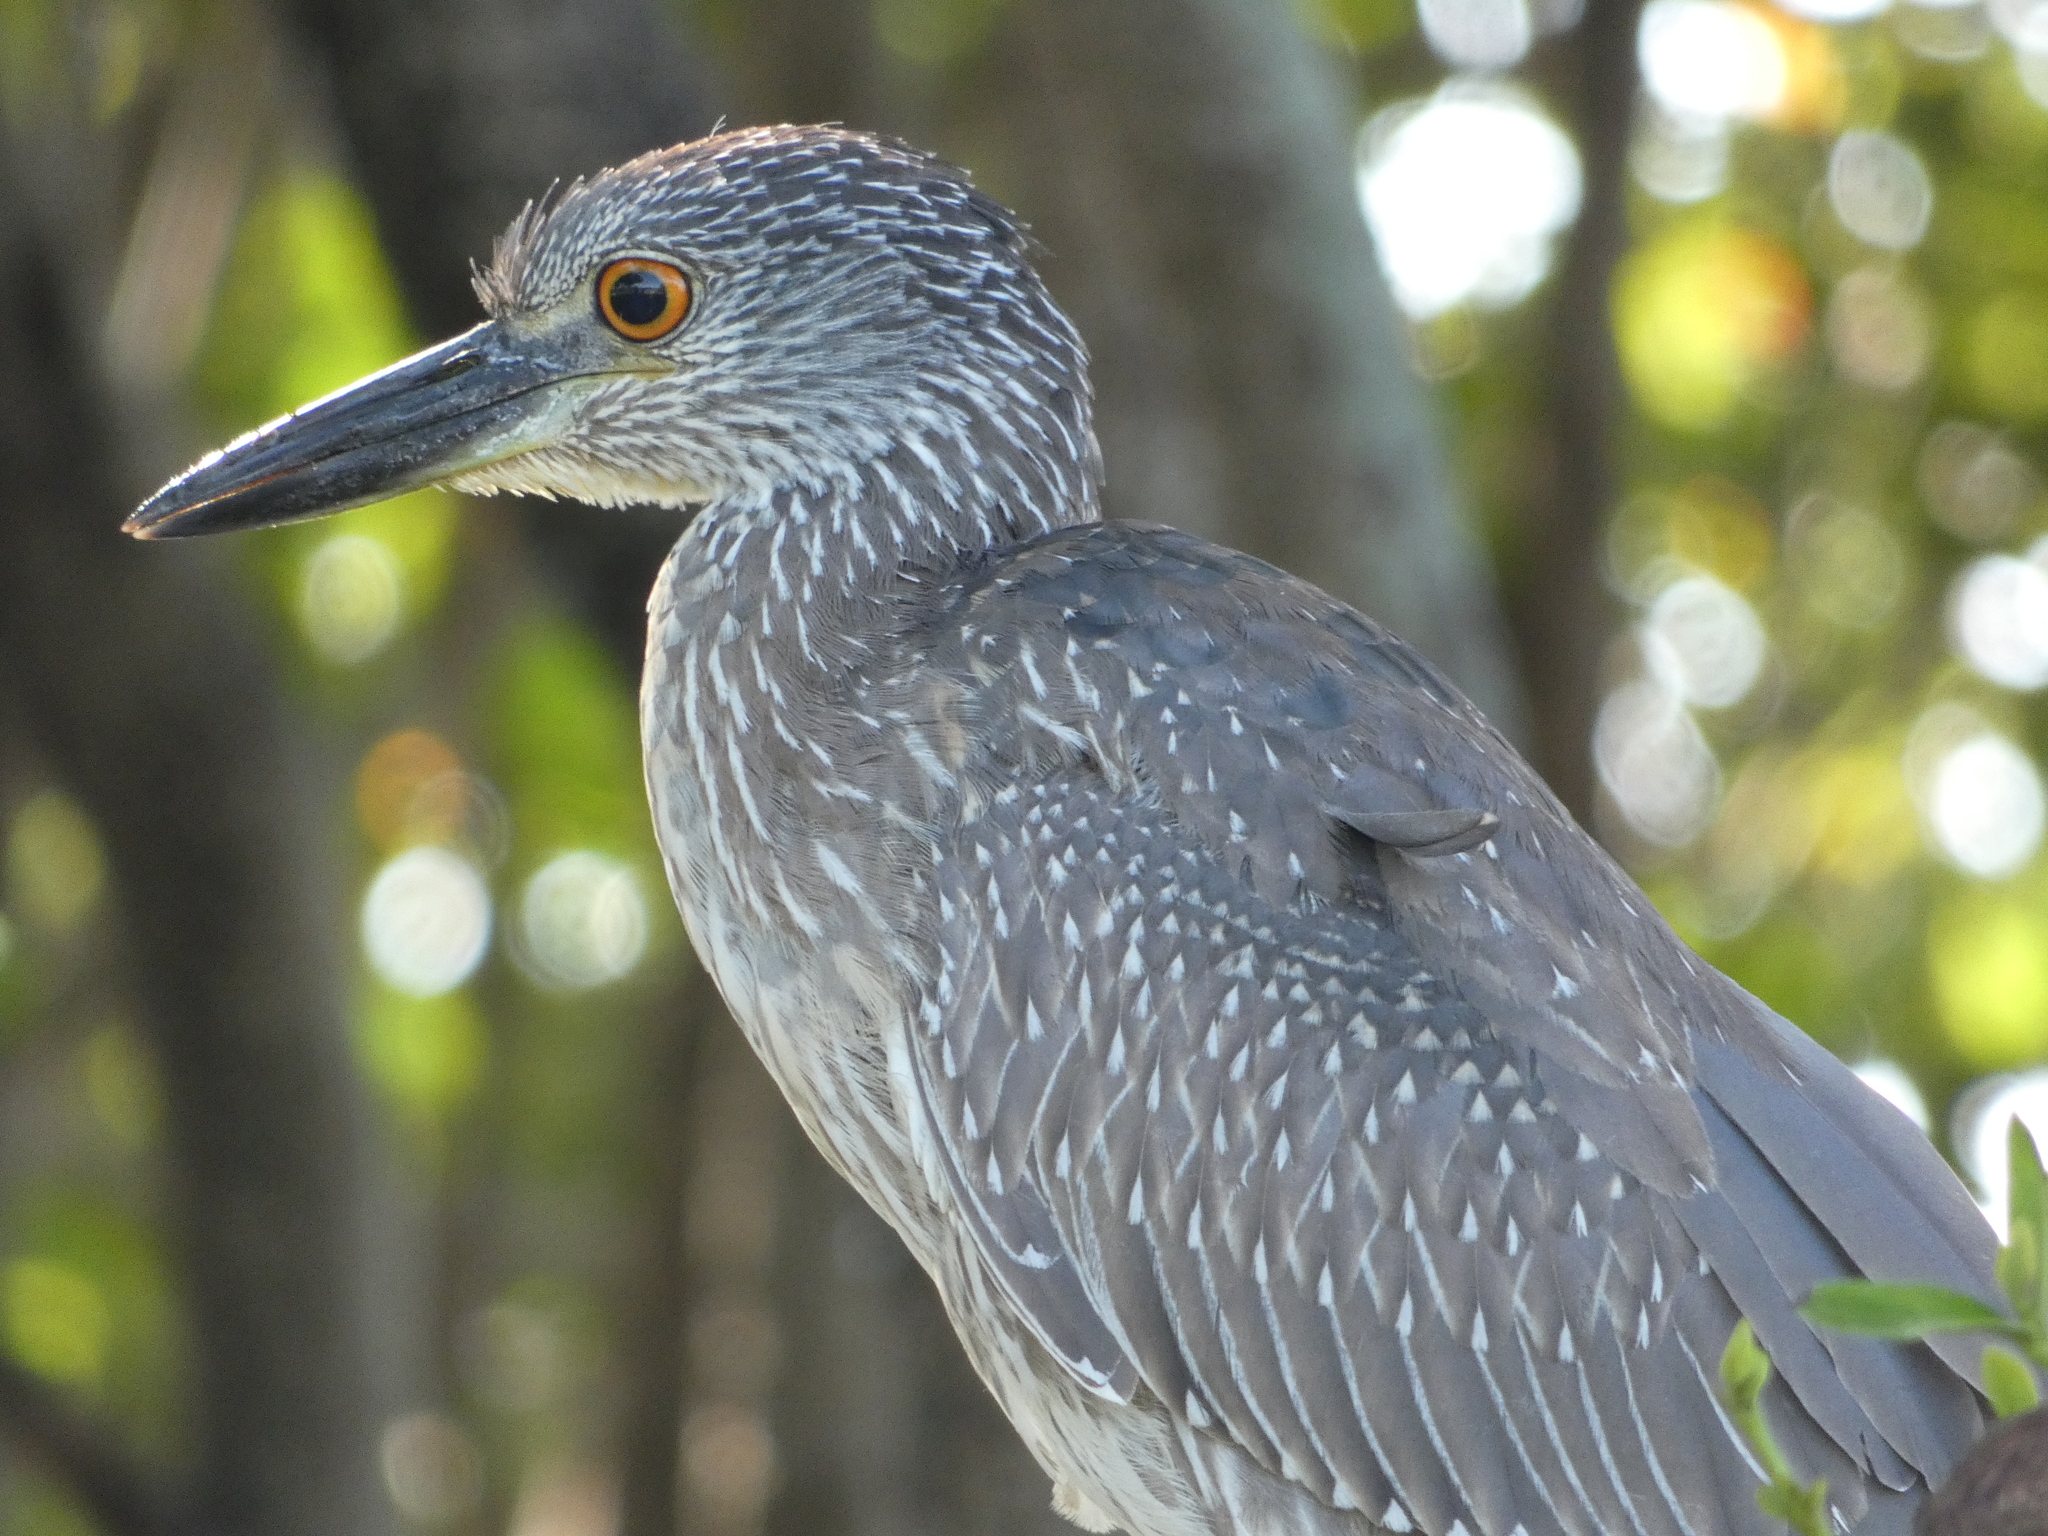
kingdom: Animalia
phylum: Chordata
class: Aves
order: Pelecaniformes
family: Ardeidae
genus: Nyctanassa
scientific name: Nyctanassa violacea
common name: Yellow-crowned night heron
